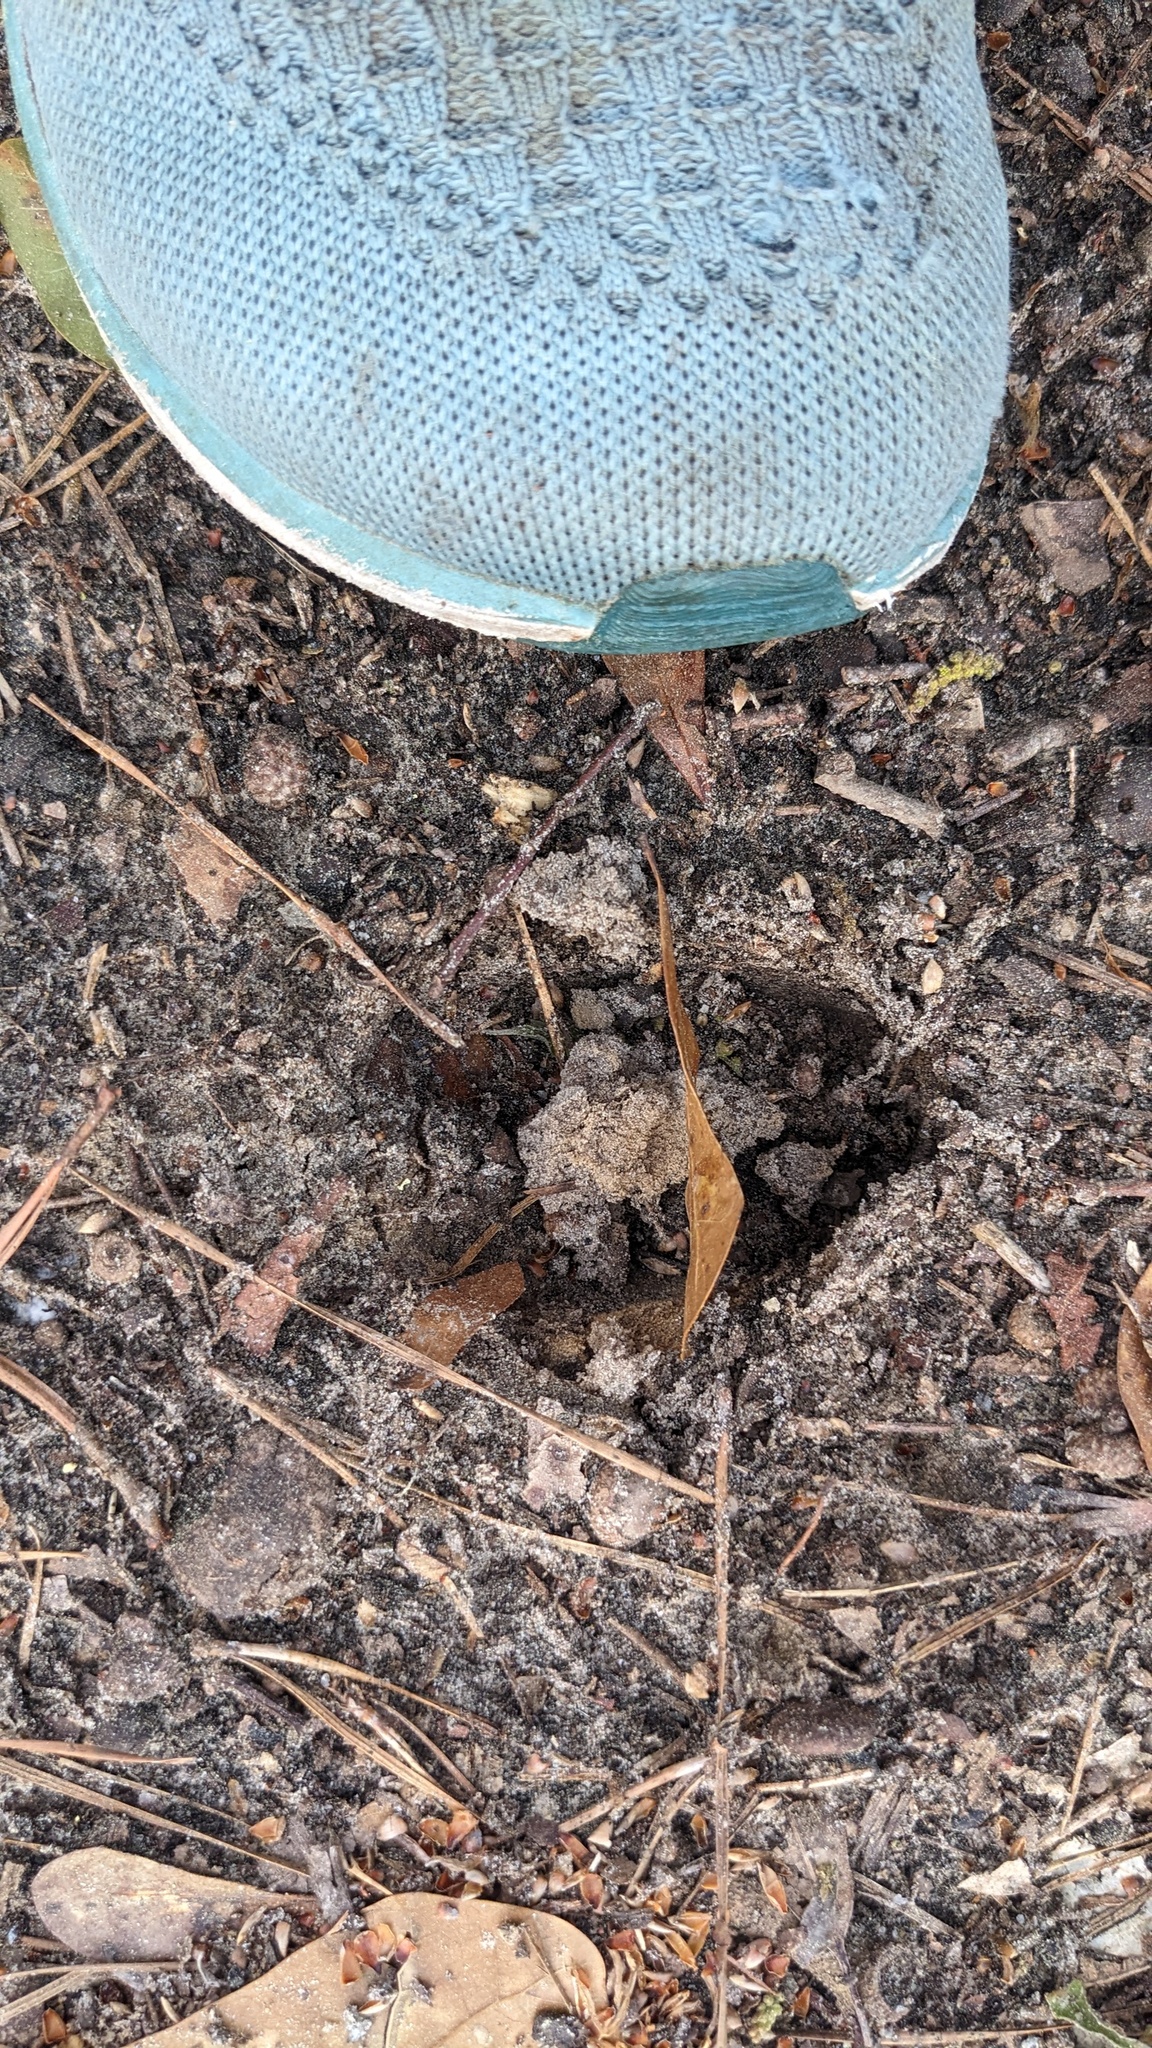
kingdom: Animalia
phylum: Chordata
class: Mammalia
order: Artiodactyla
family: Cervidae
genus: Odocoileus
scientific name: Odocoileus virginianus
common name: White-tailed deer
